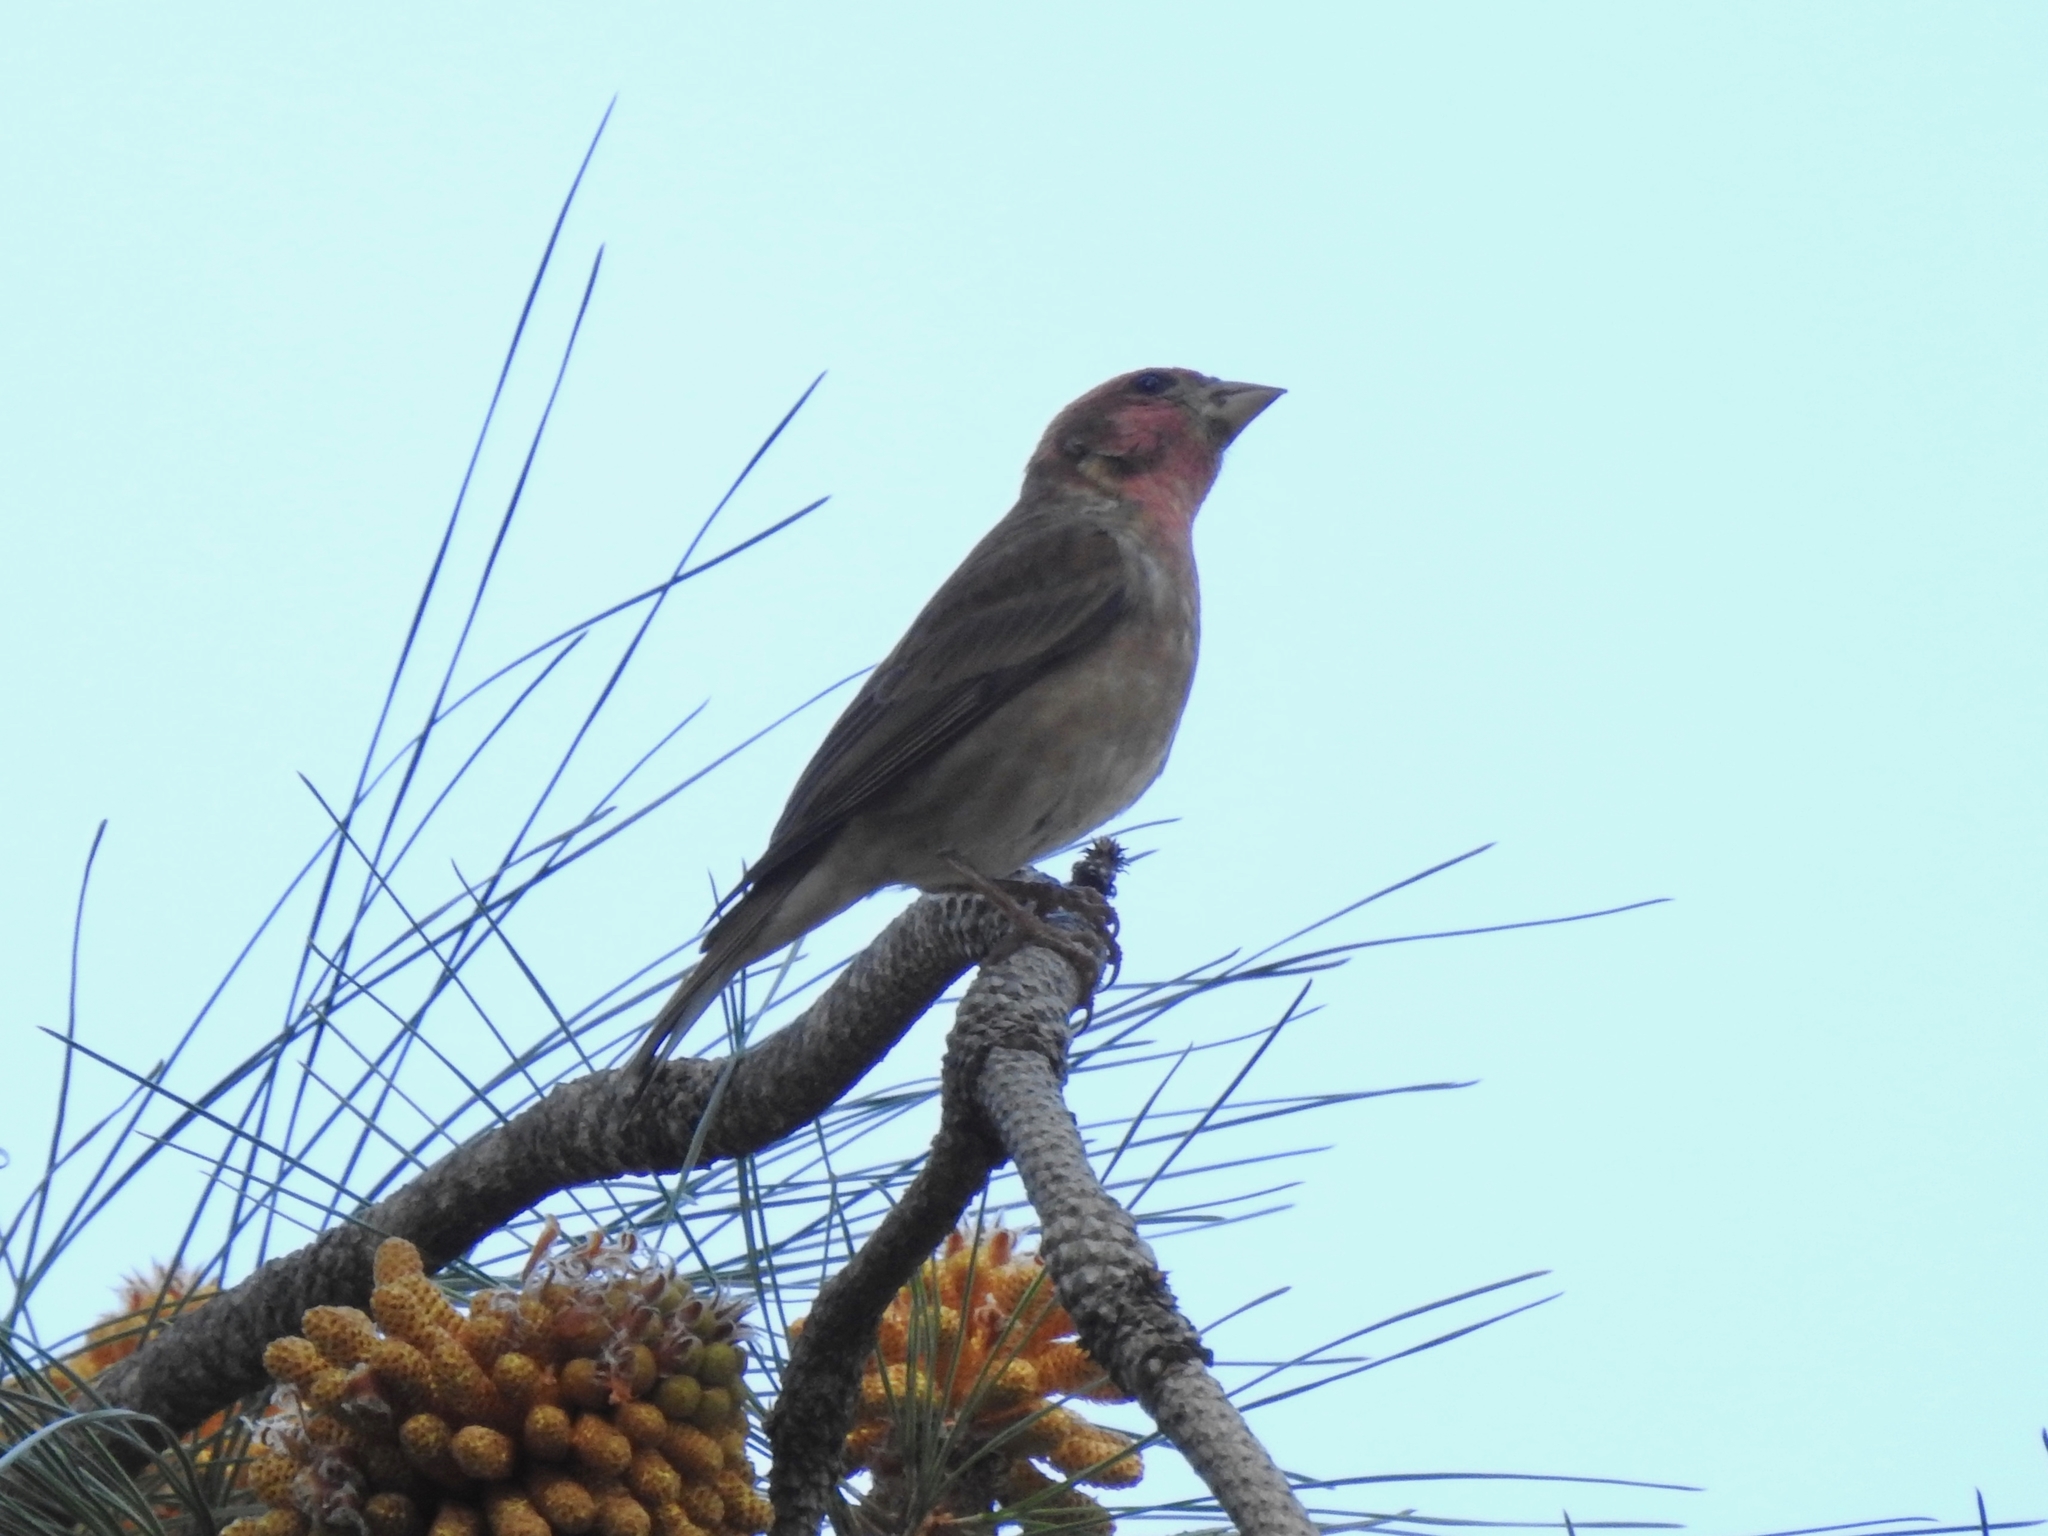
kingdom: Animalia
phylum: Chordata
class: Aves
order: Passeriformes
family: Fringillidae
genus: Haemorhous
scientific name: Haemorhous purpureus
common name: Purple finch
